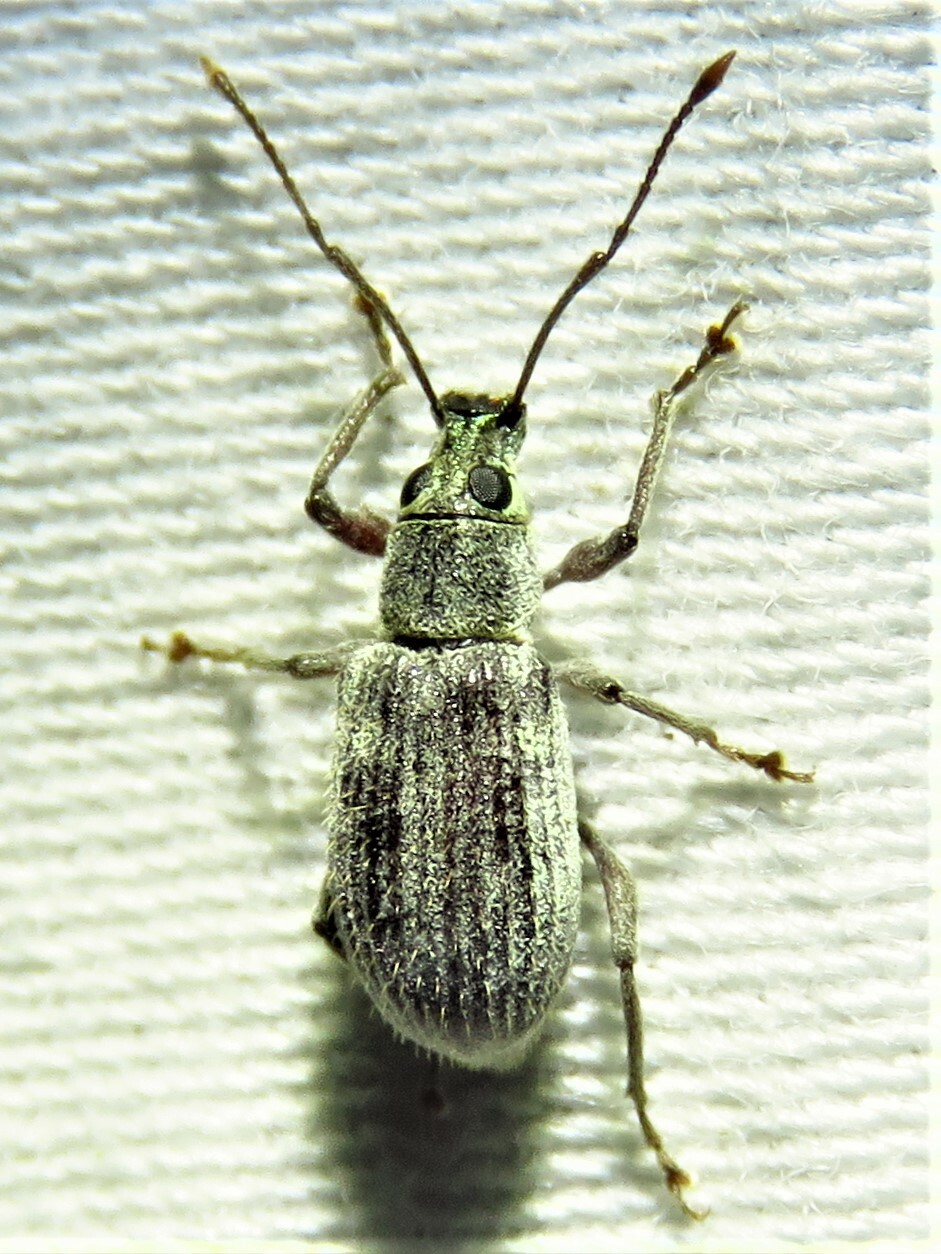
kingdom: Animalia
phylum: Arthropoda
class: Insecta
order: Coleoptera
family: Curculionidae
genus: Cyrtepistomus
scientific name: Cyrtepistomus castaneus
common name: Weevil
